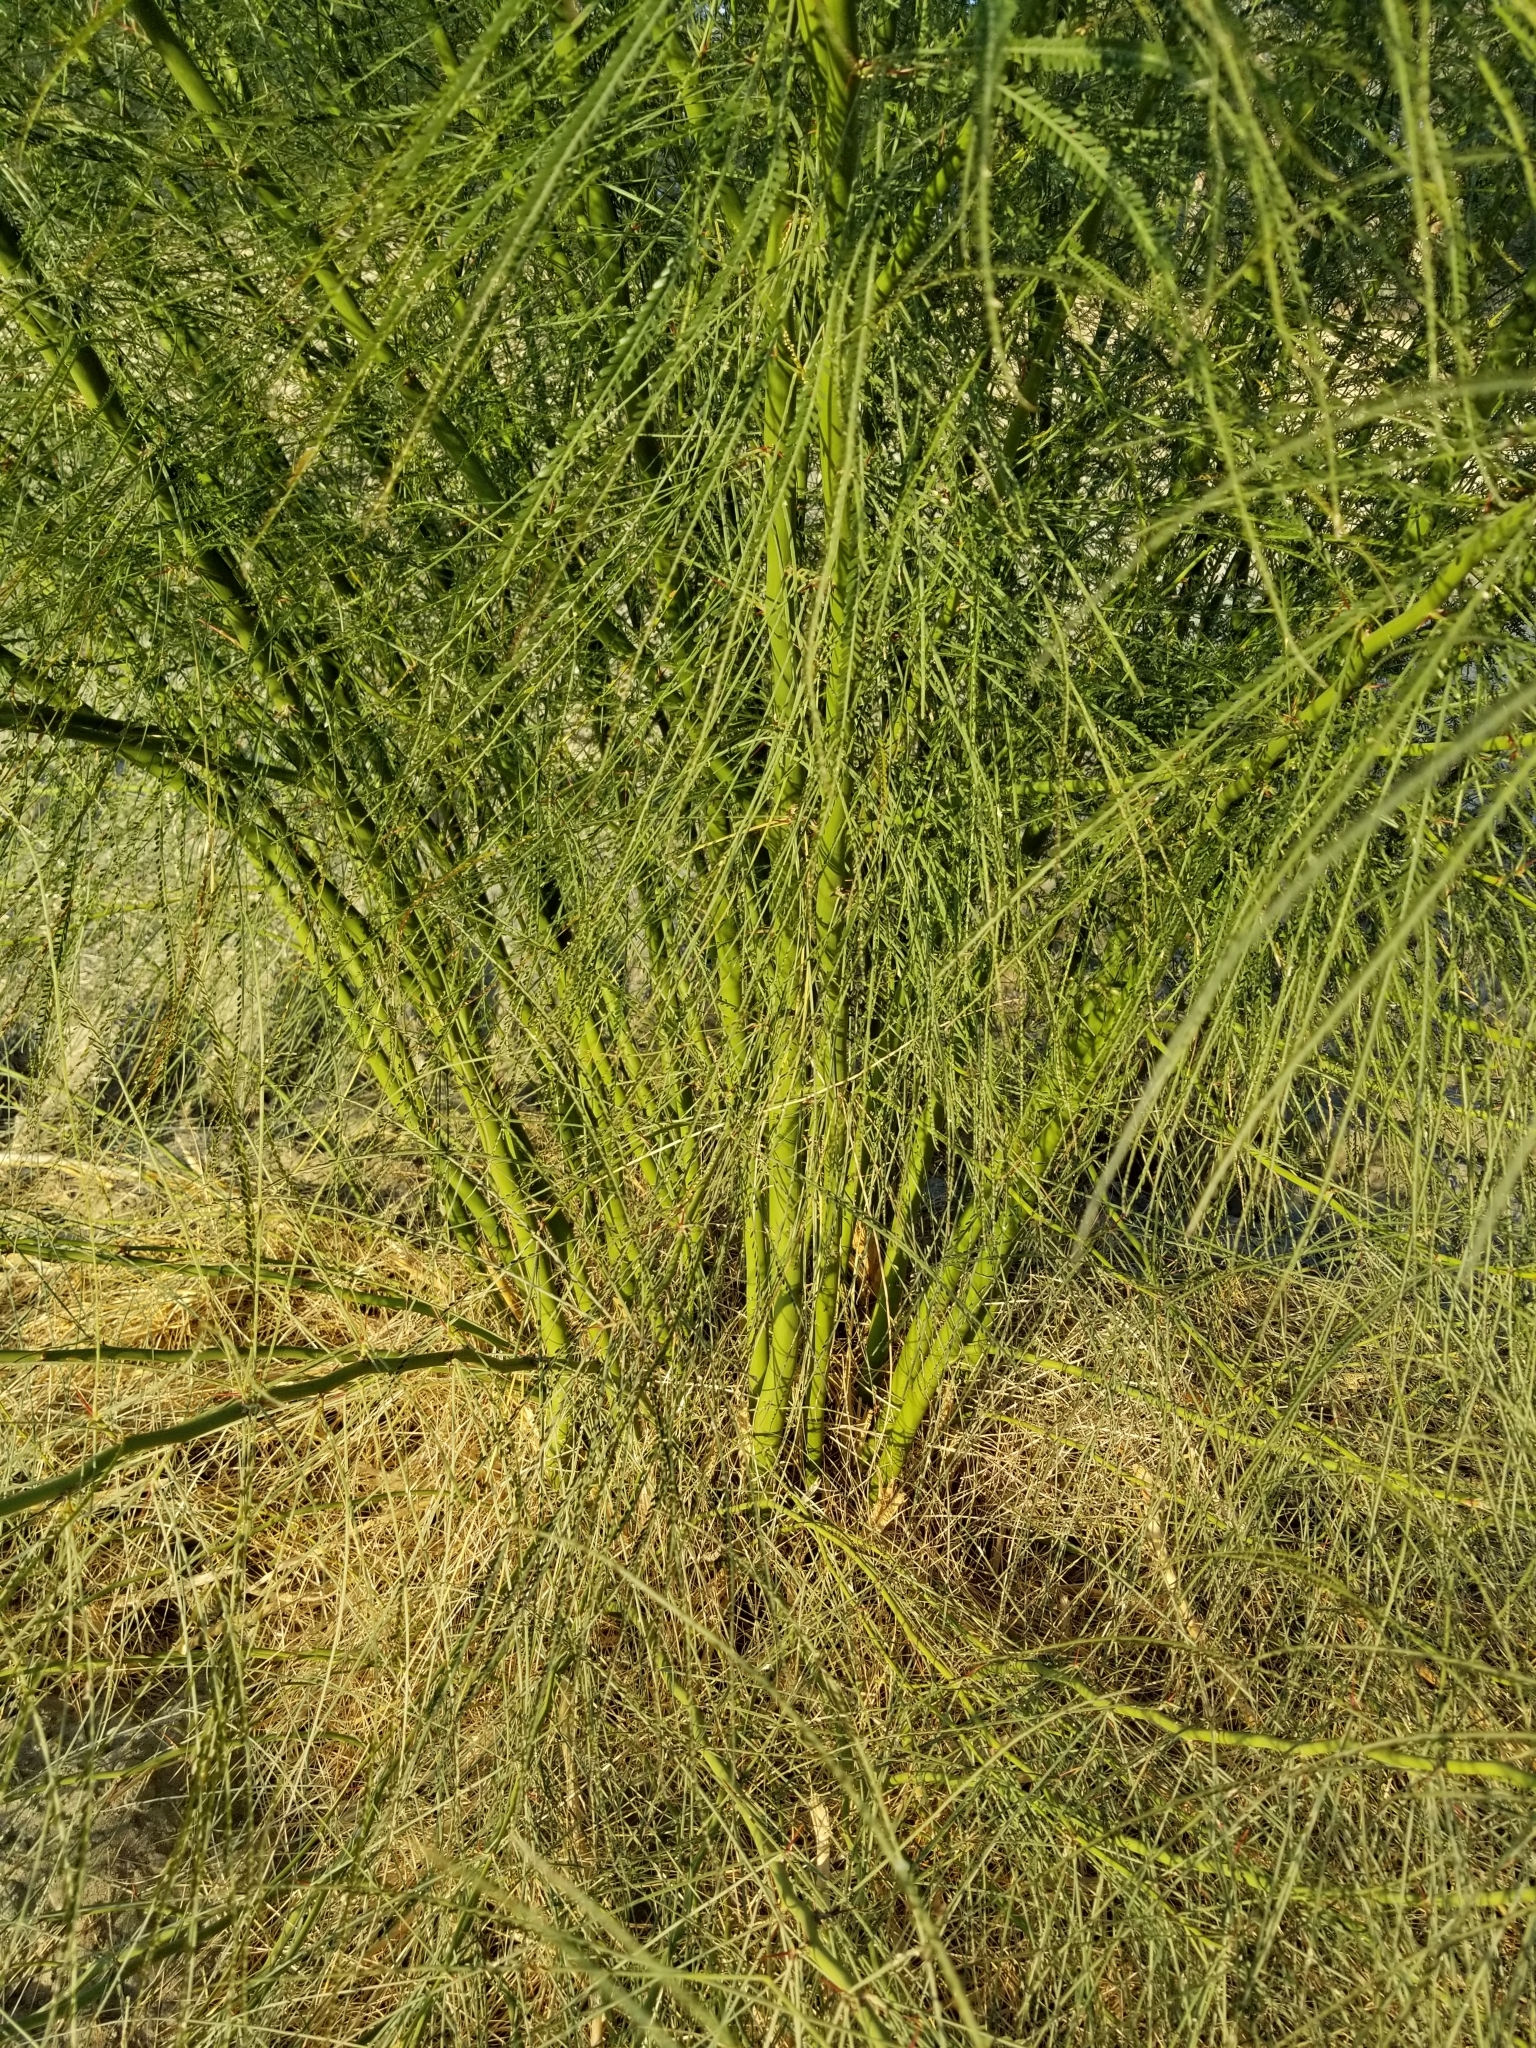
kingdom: Plantae
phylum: Tracheophyta
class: Magnoliopsida
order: Fabales
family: Fabaceae
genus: Parkinsonia
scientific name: Parkinsonia aculeata
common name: Jerusalem thorn
